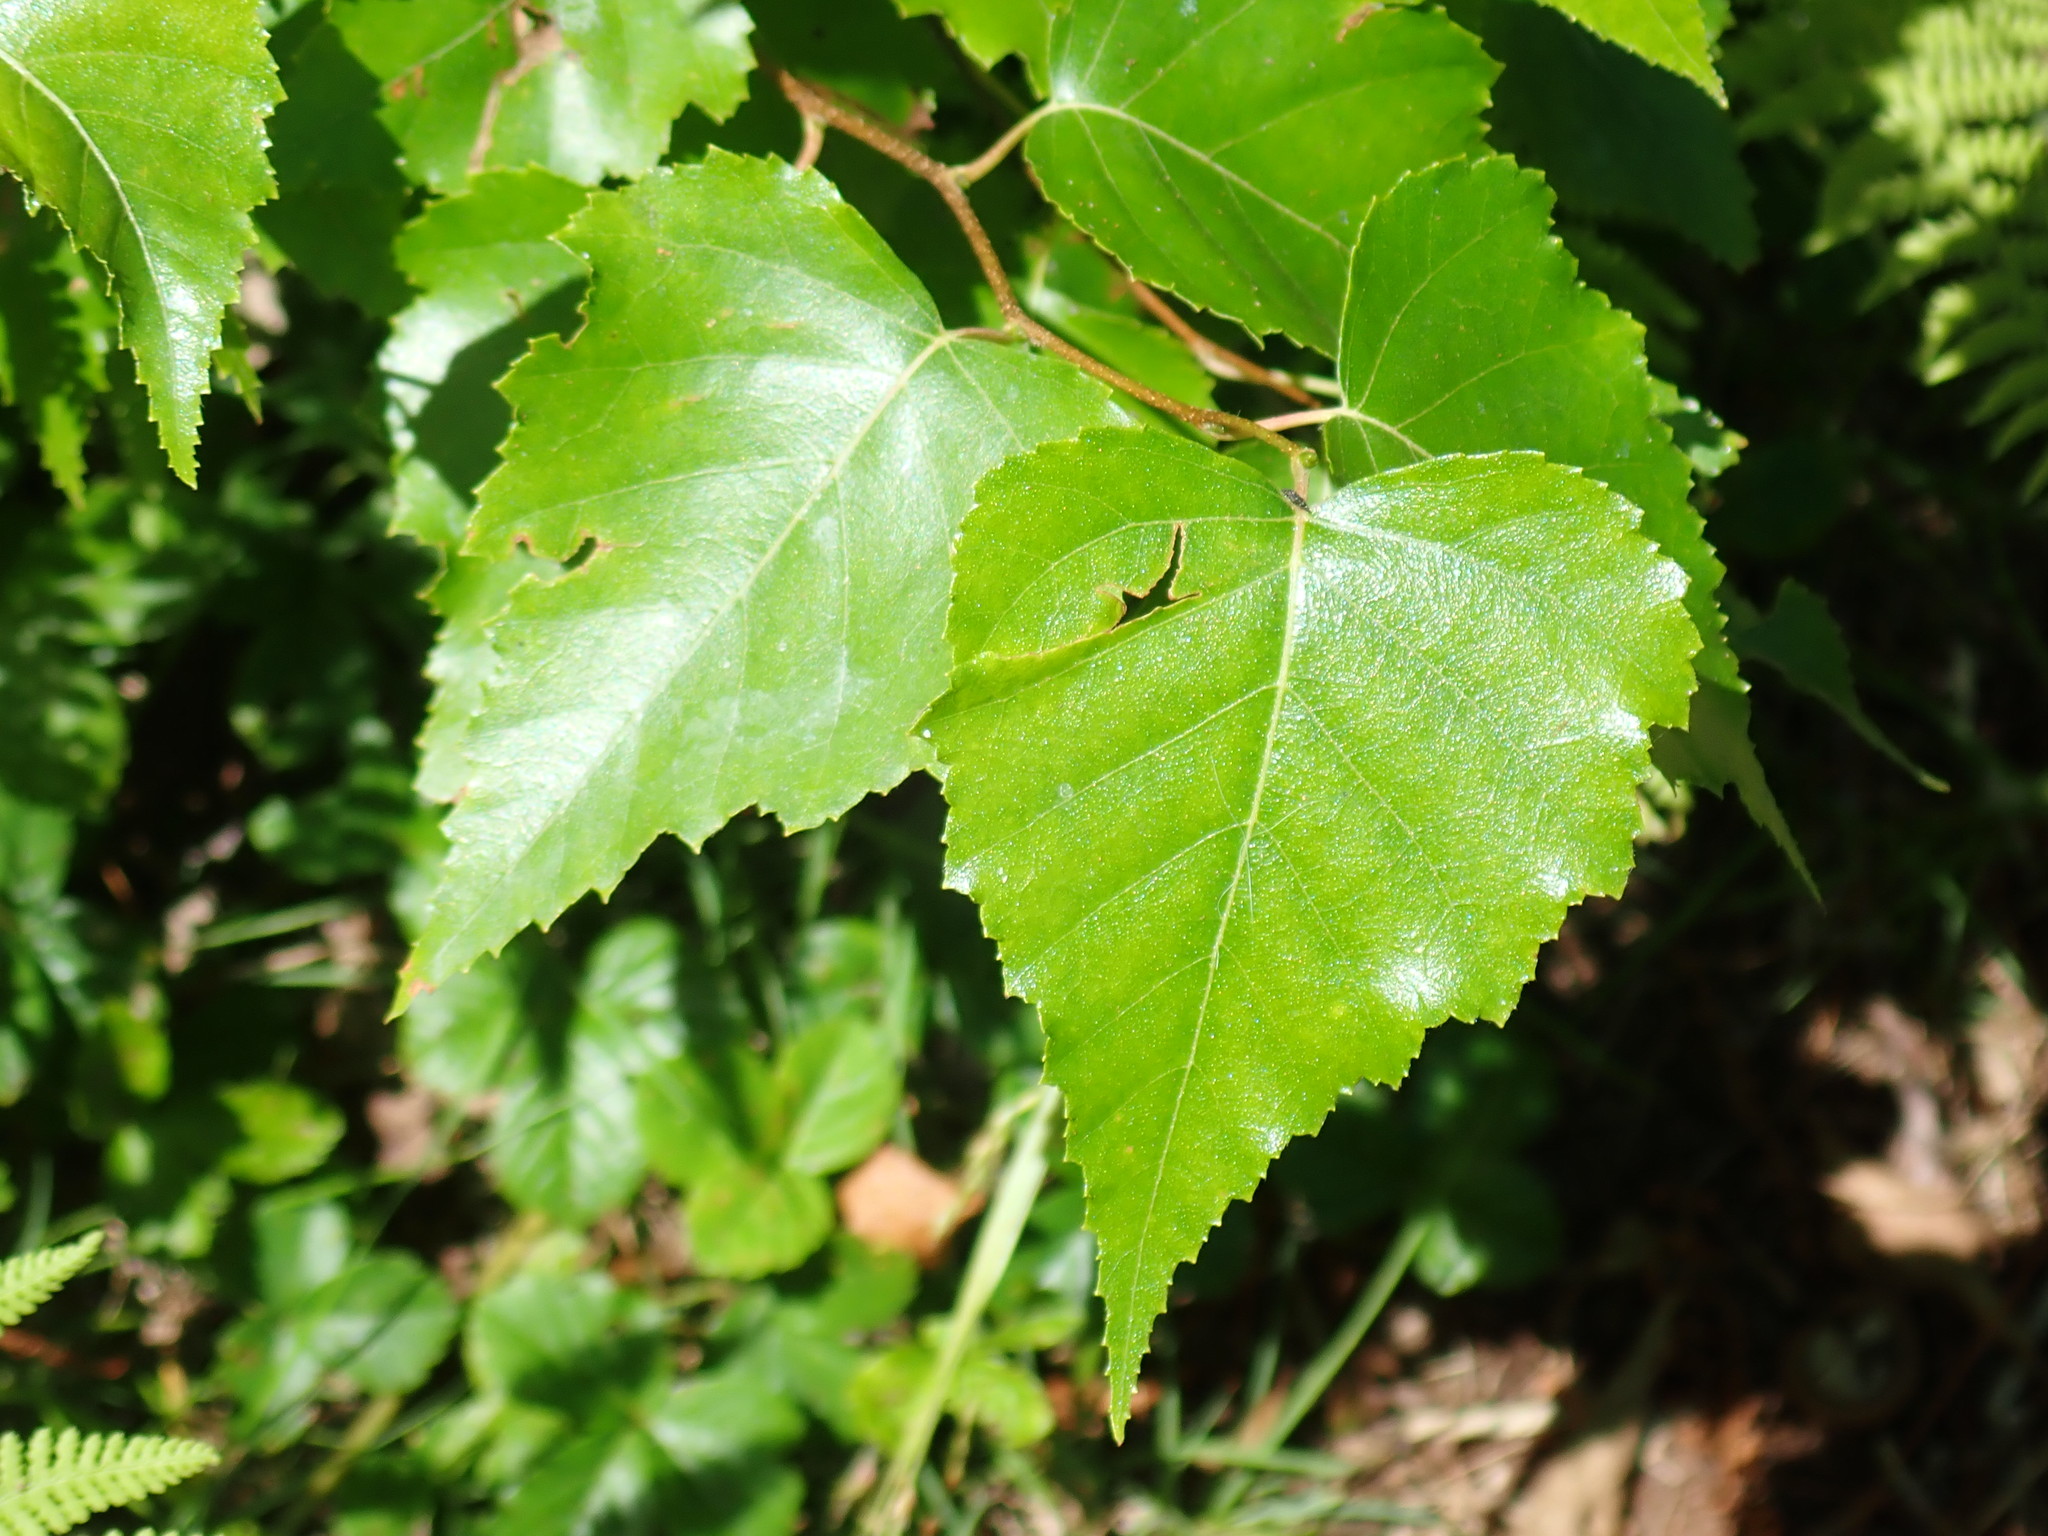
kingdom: Plantae
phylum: Tracheophyta
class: Magnoliopsida
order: Fagales
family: Betulaceae
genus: Betula
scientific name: Betula populifolia
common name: Fire birch
